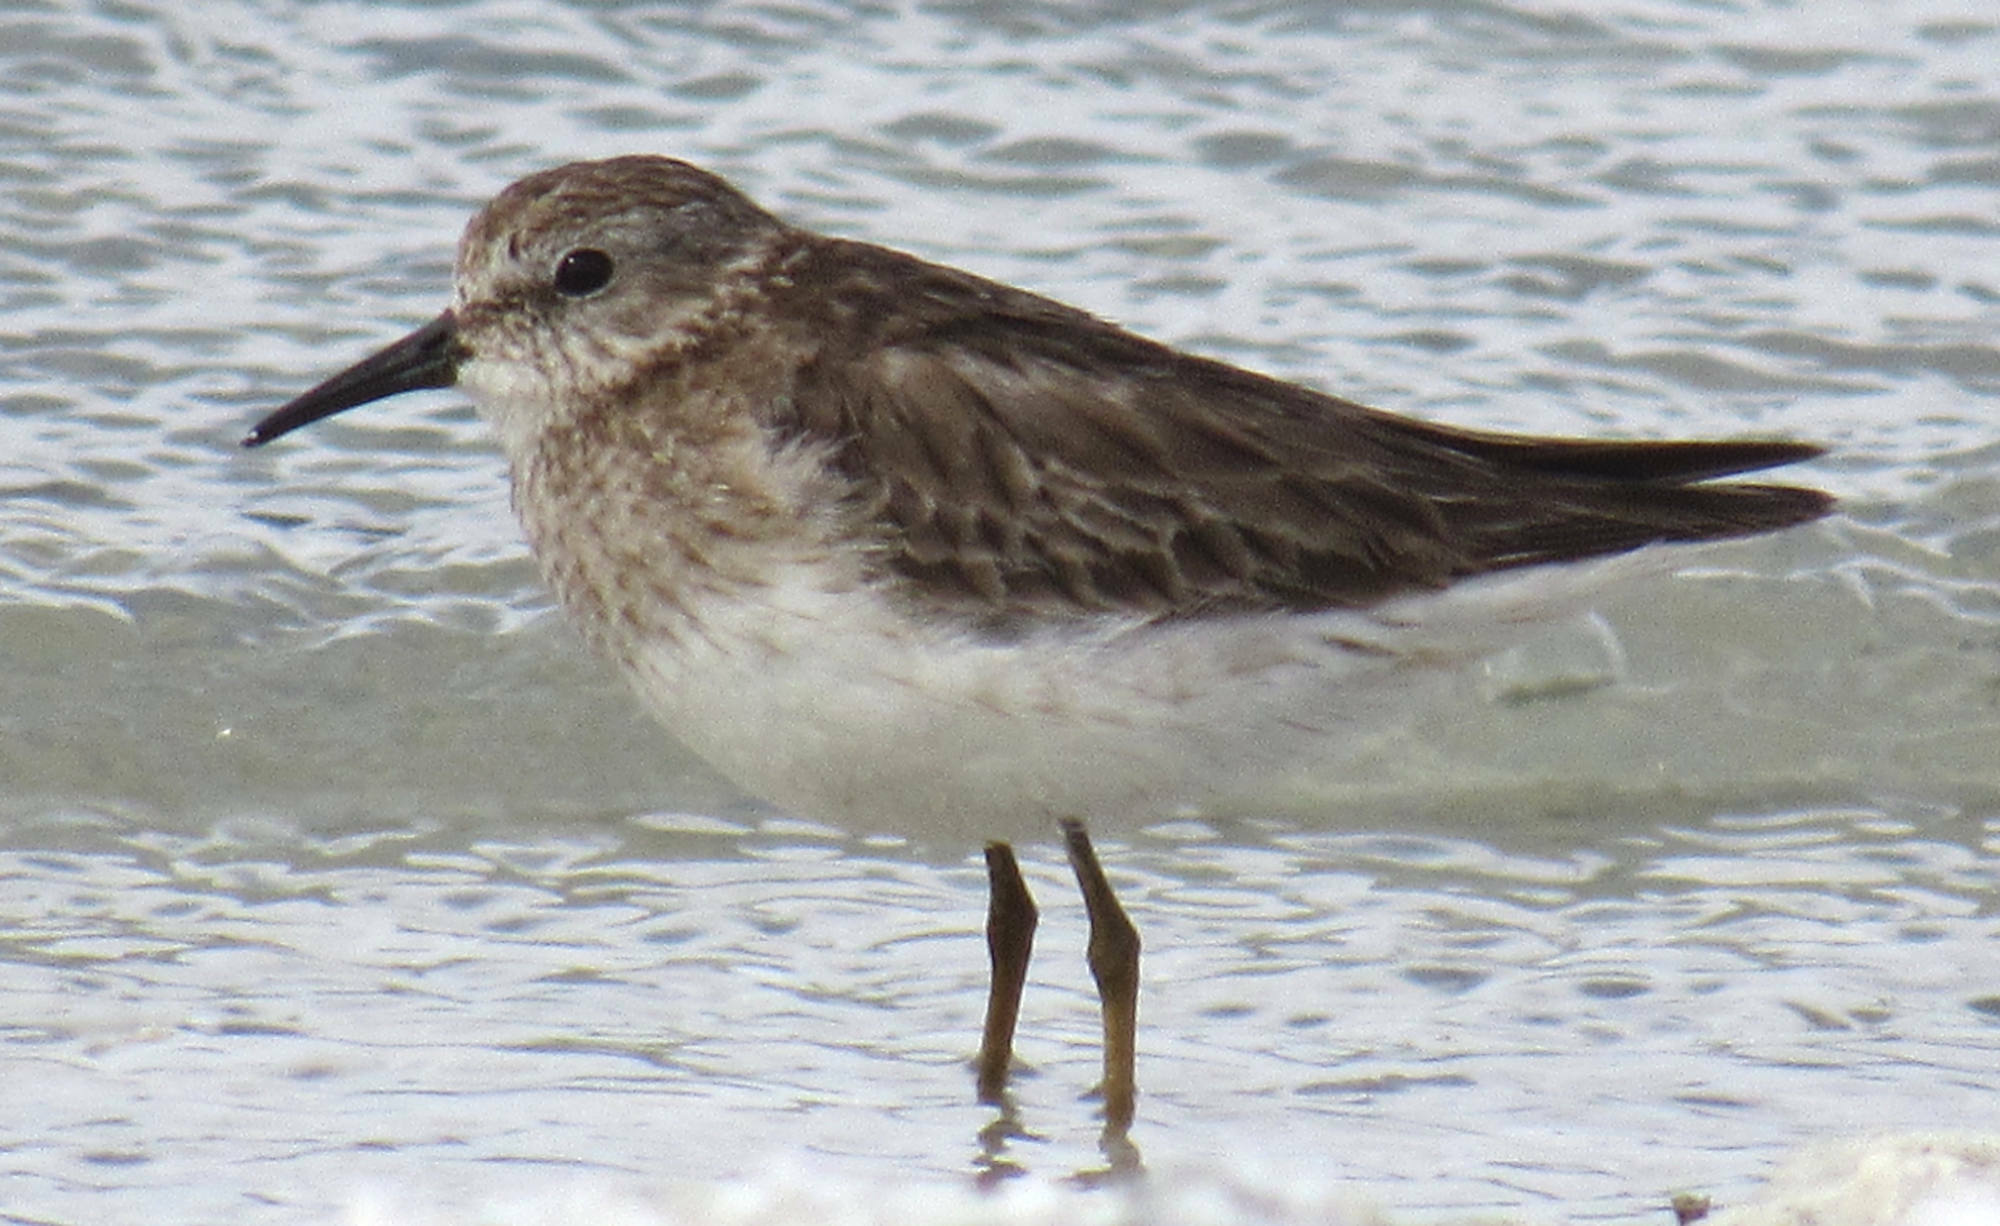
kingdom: Animalia
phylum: Chordata
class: Aves
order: Charadriiformes
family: Scolopacidae
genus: Calidris
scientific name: Calidris minutilla
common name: Least sandpiper
